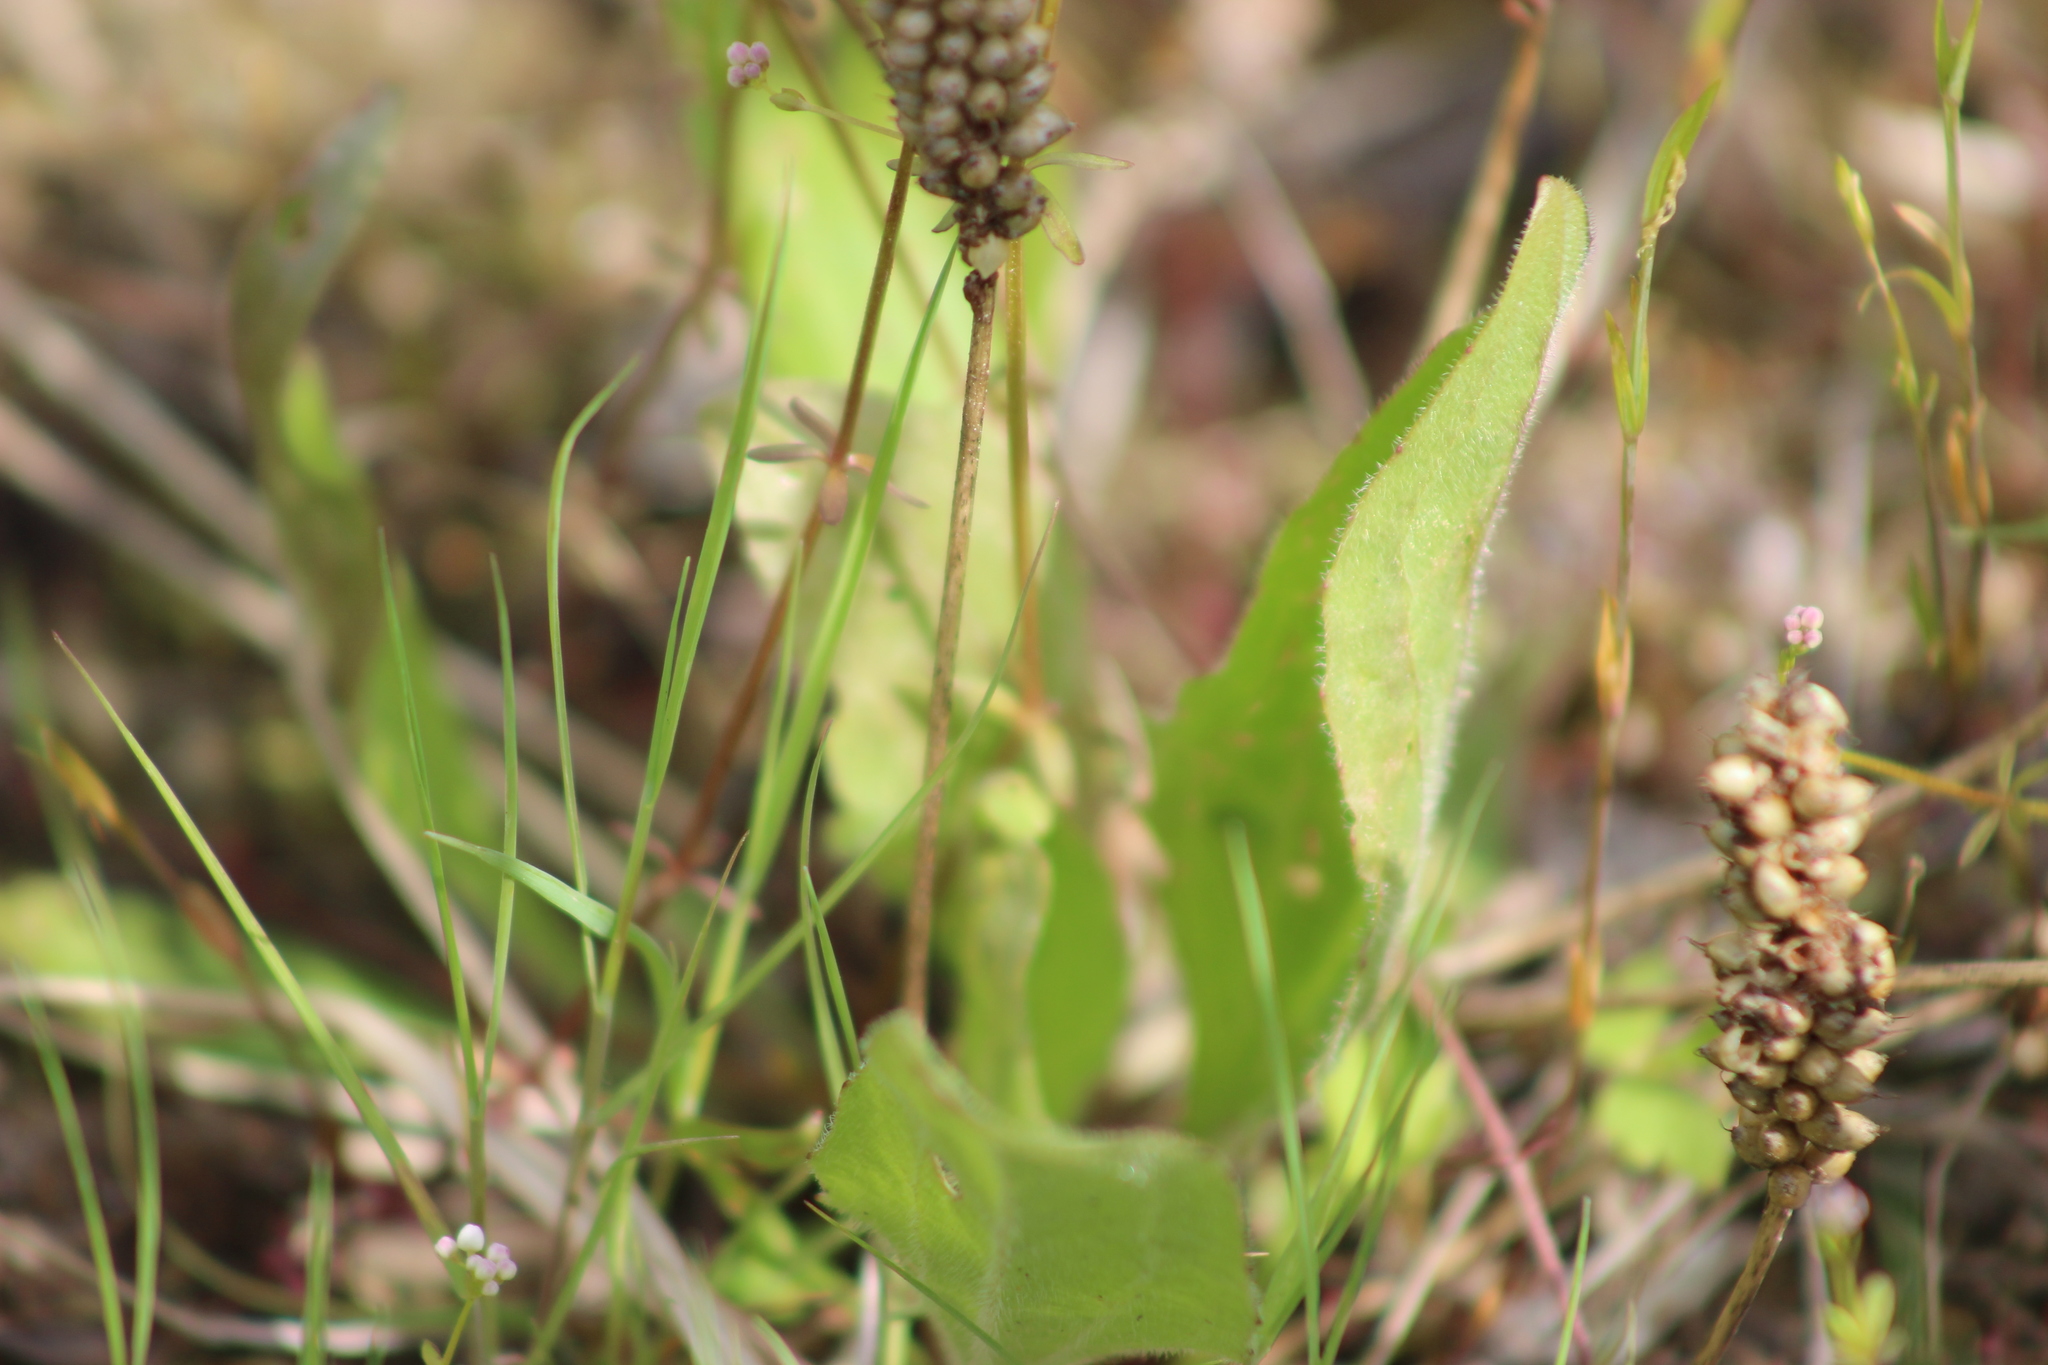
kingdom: Plantae
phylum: Tracheophyta
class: Magnoliopsida
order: Lamiales
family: Plantaginaceae
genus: Plantago
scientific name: Plantago media
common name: Hoary plantain
